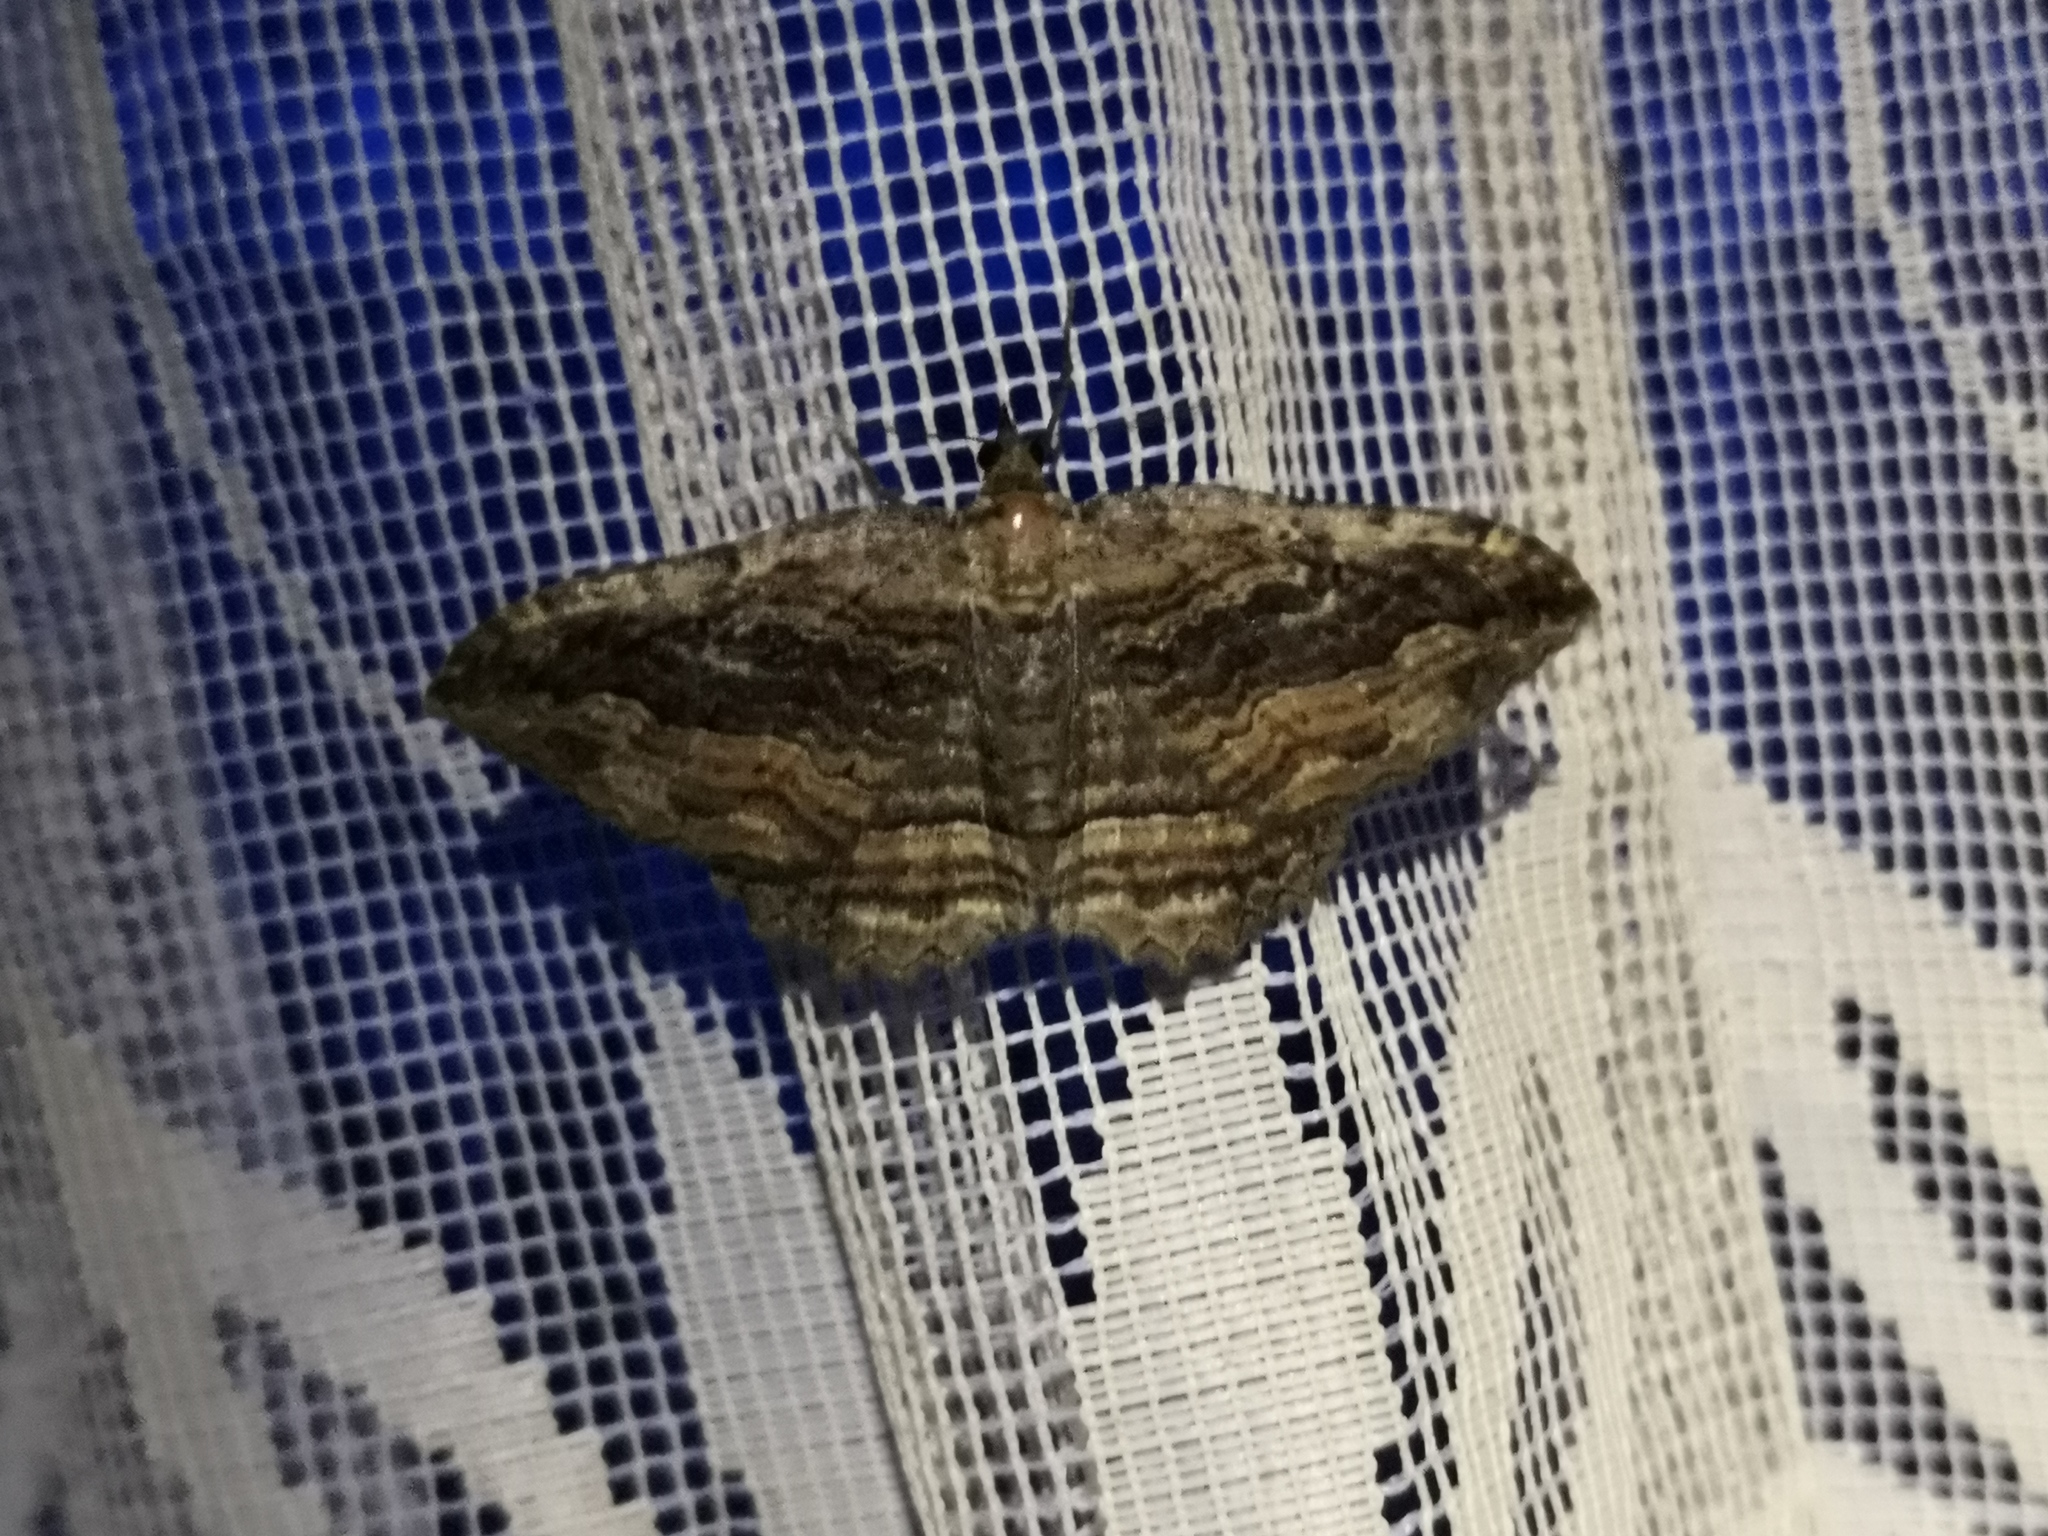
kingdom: Animalia
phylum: Arthropoda
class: Insecta
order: Lepidoptera
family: Geometridae
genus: Philereme
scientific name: Philereme transversata
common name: Dark umber
